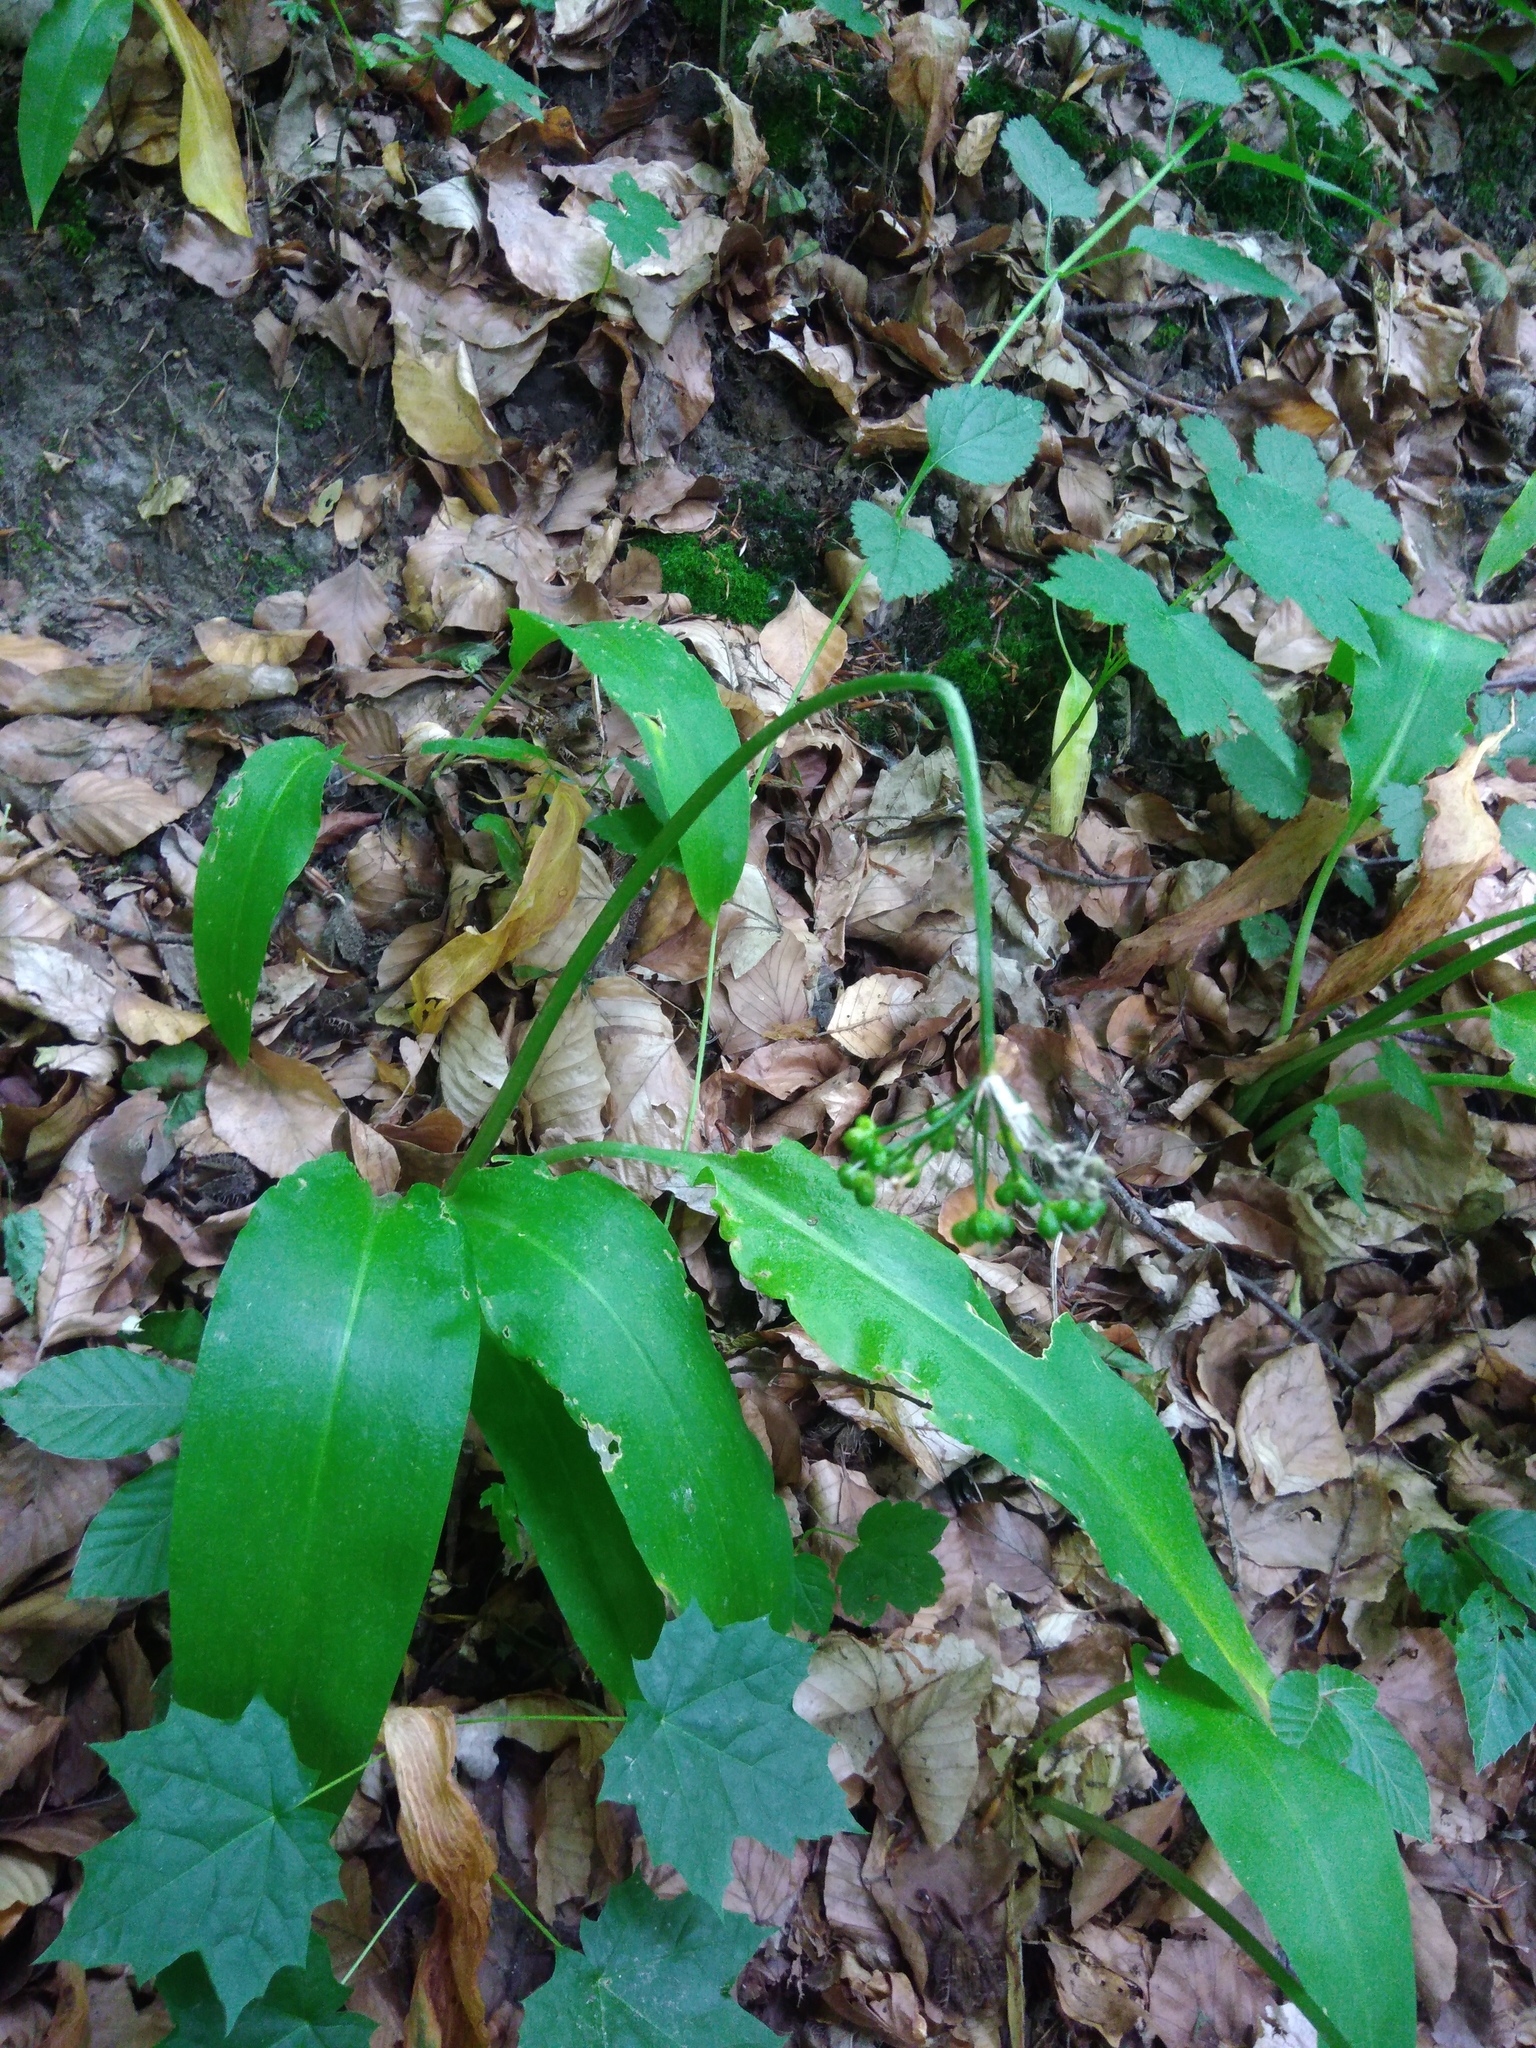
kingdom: Plantae
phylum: Tracheophyta
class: Liliopsida
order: Asparagales
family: Amaryllidaceae
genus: Allium
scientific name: Allium ursinum
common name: Ramsons
